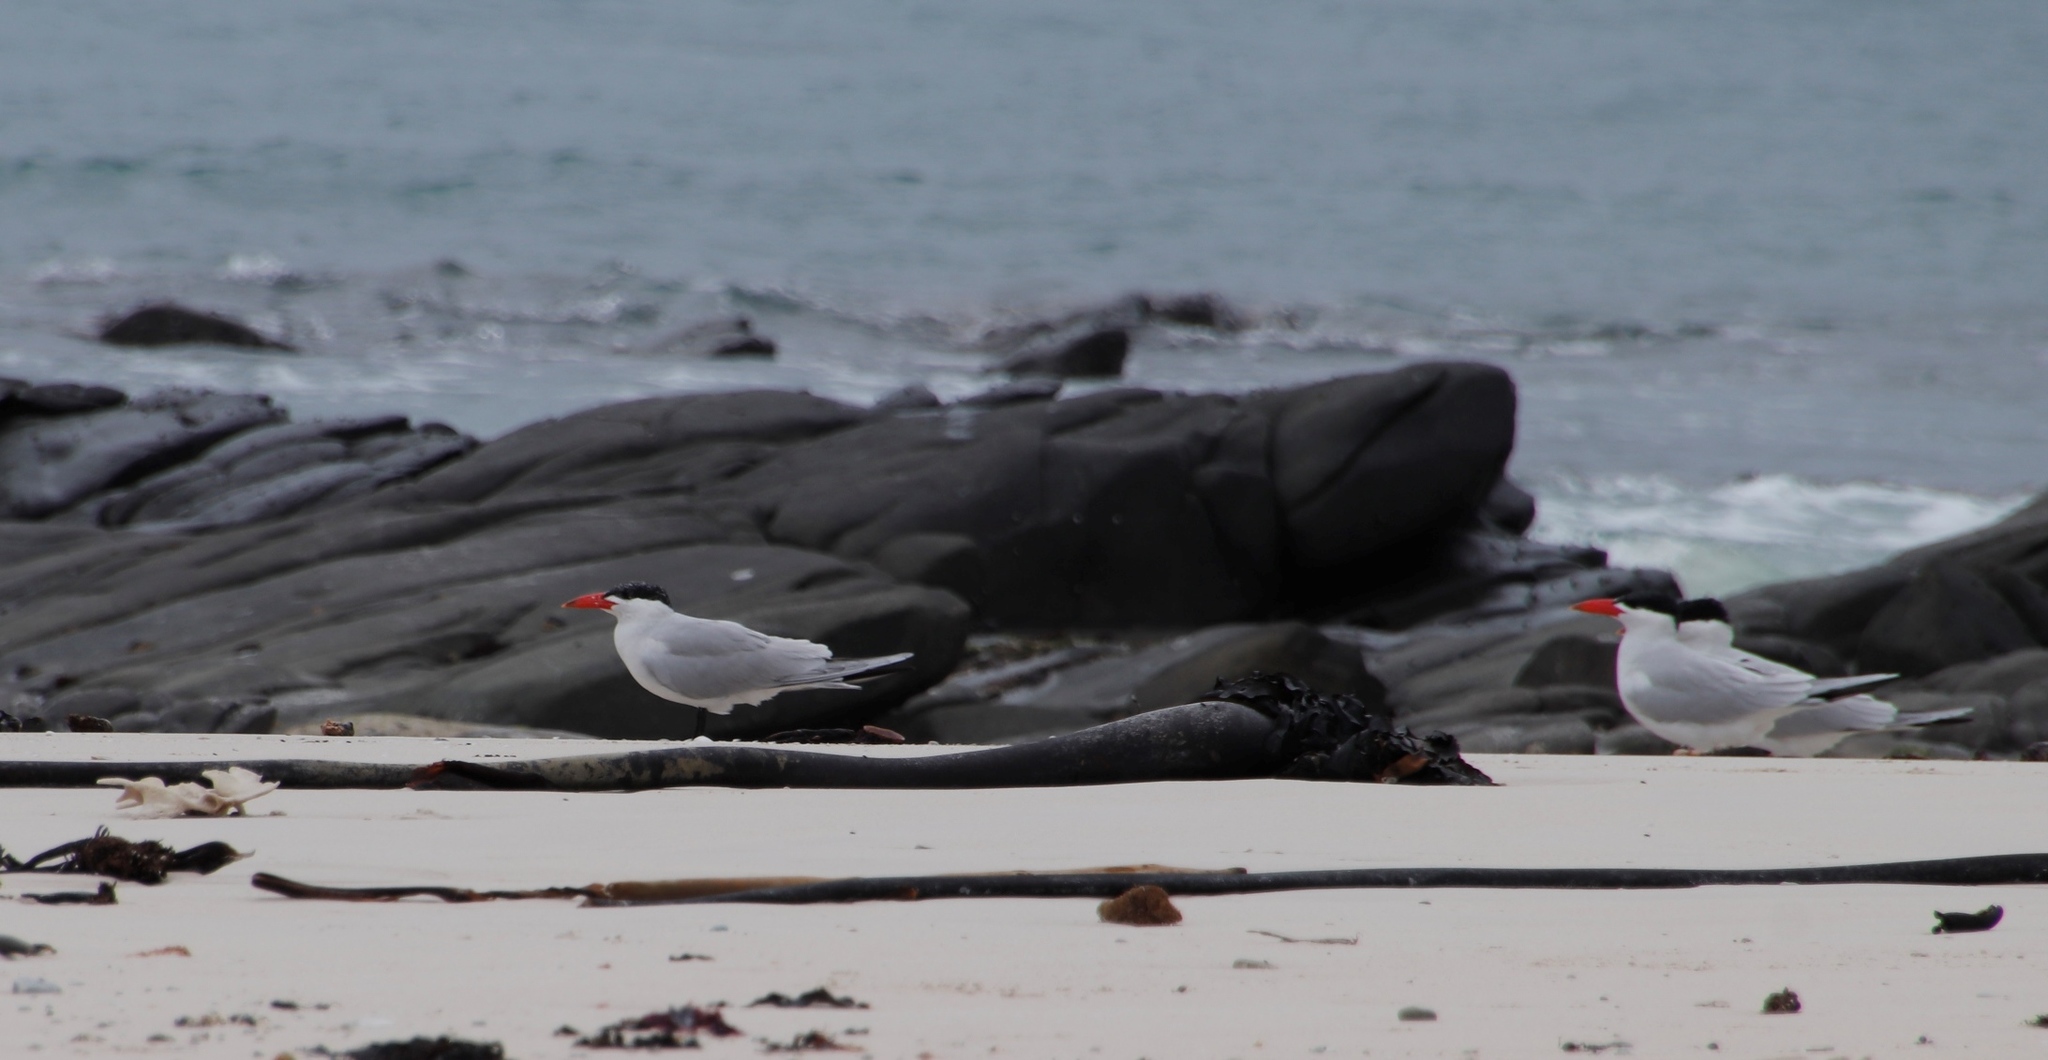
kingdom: Animalia
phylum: Chordata
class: Aves
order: Charadriiformes
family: Laridae
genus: Hydroprogne
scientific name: Hydroprogne caspia
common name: Caspian tern
